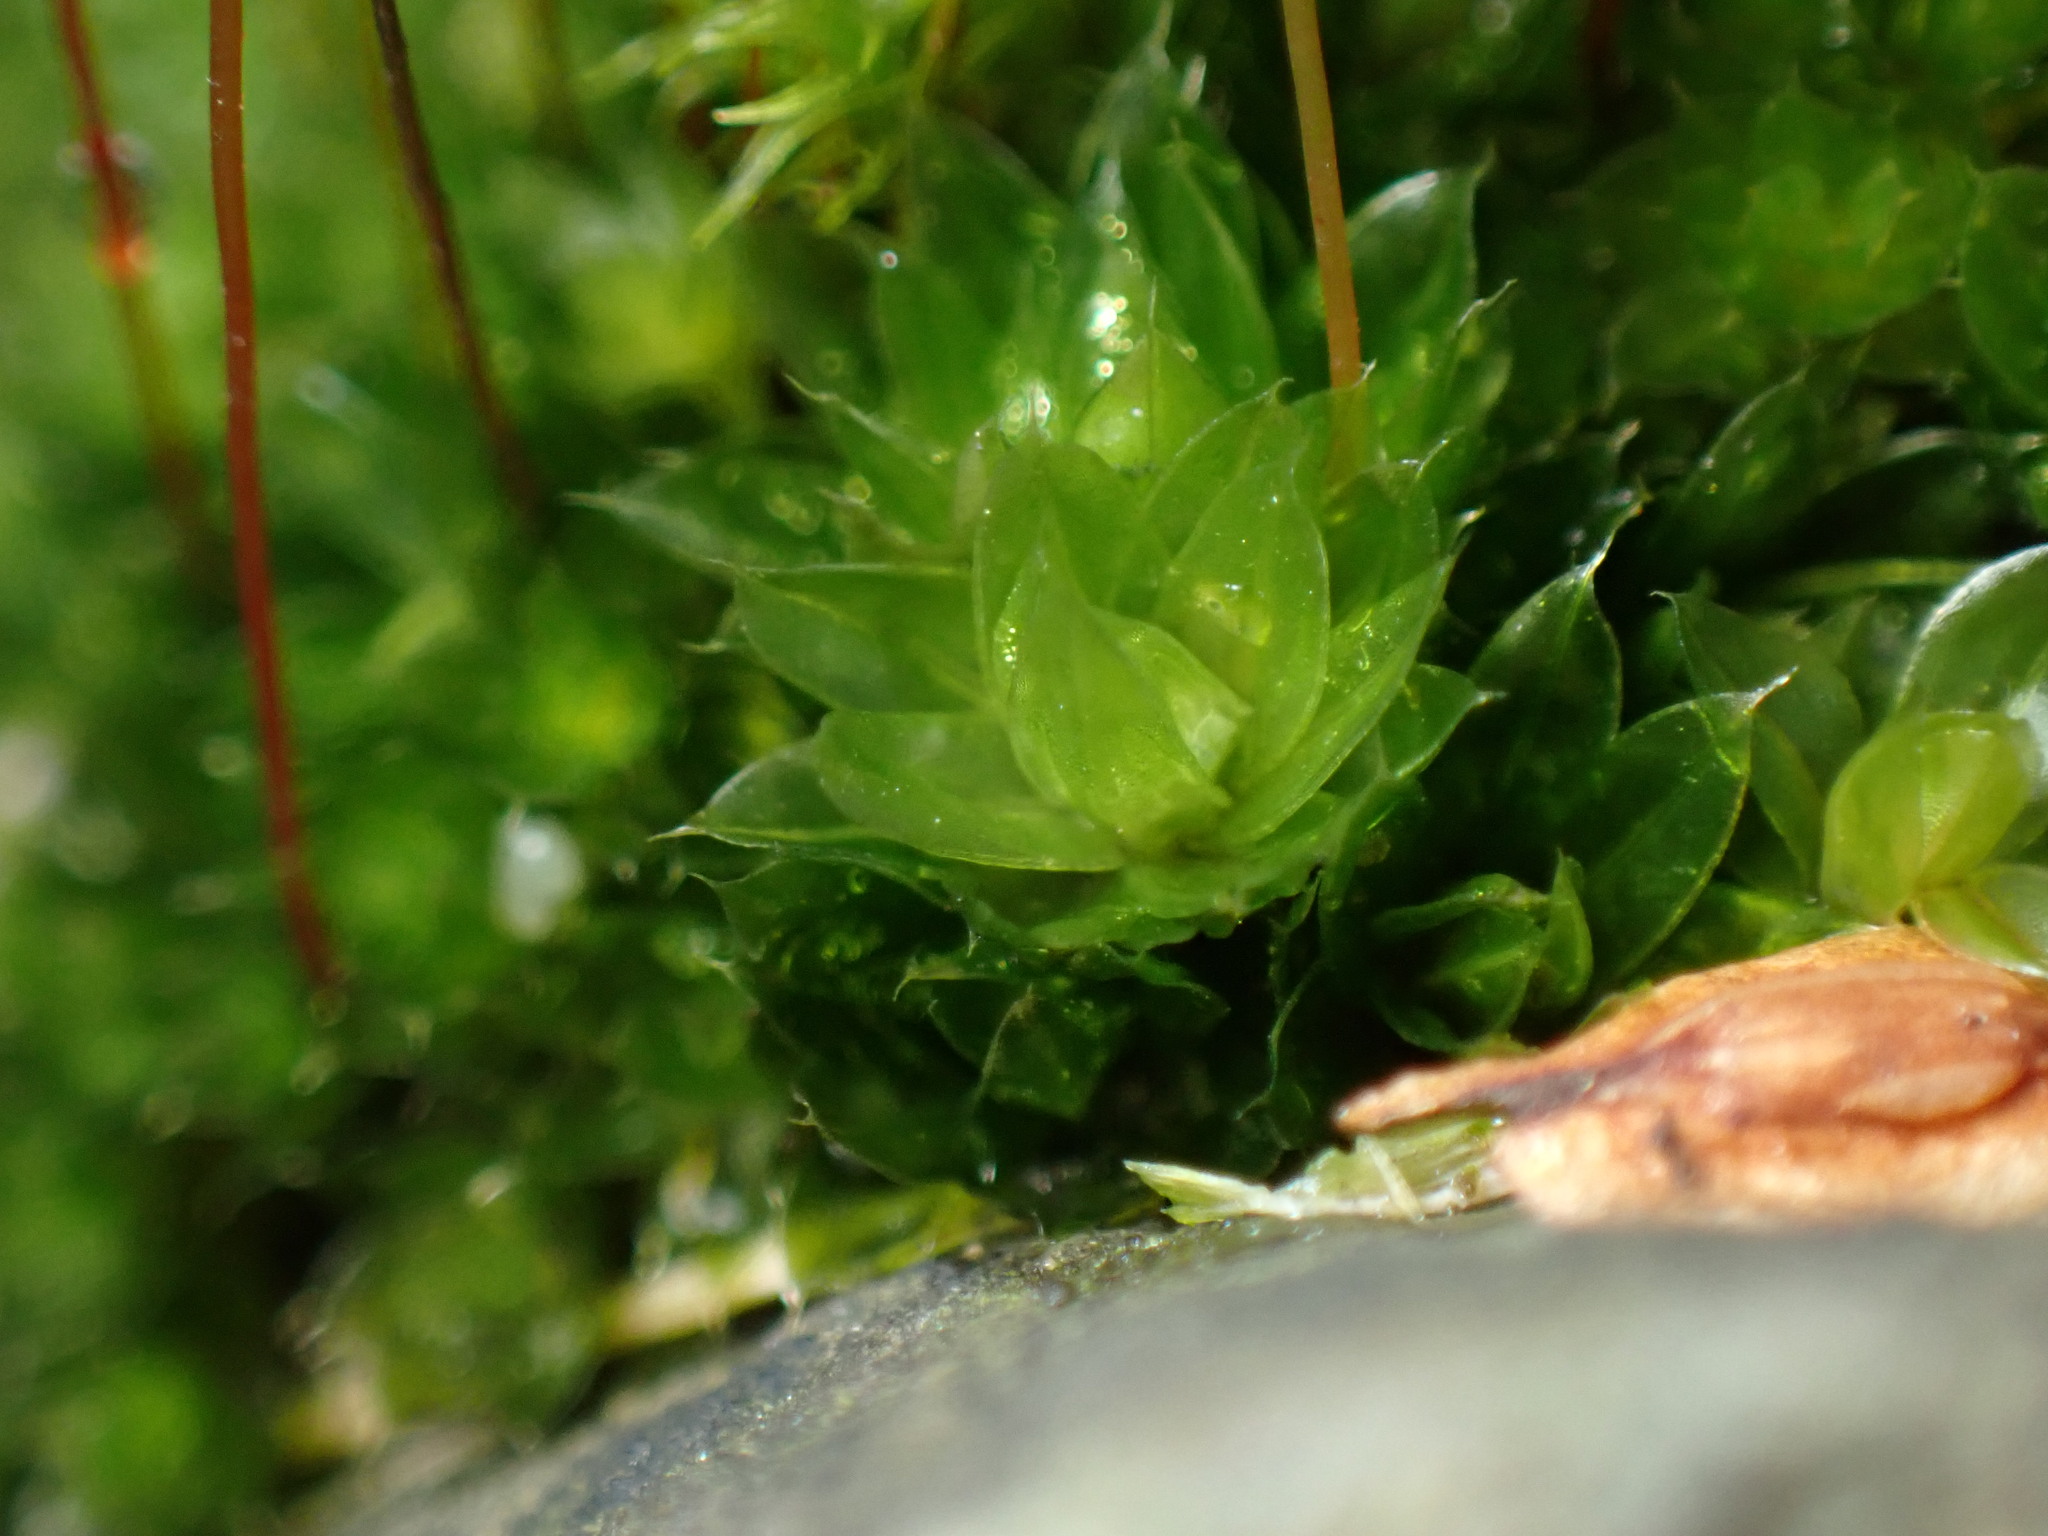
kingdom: Plantae
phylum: Bryophyta
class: Bryopsida
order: Bryales
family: Bryaceae
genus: Rosulabryum
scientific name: Rosulabryum capillare
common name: Capillary thread-moss
